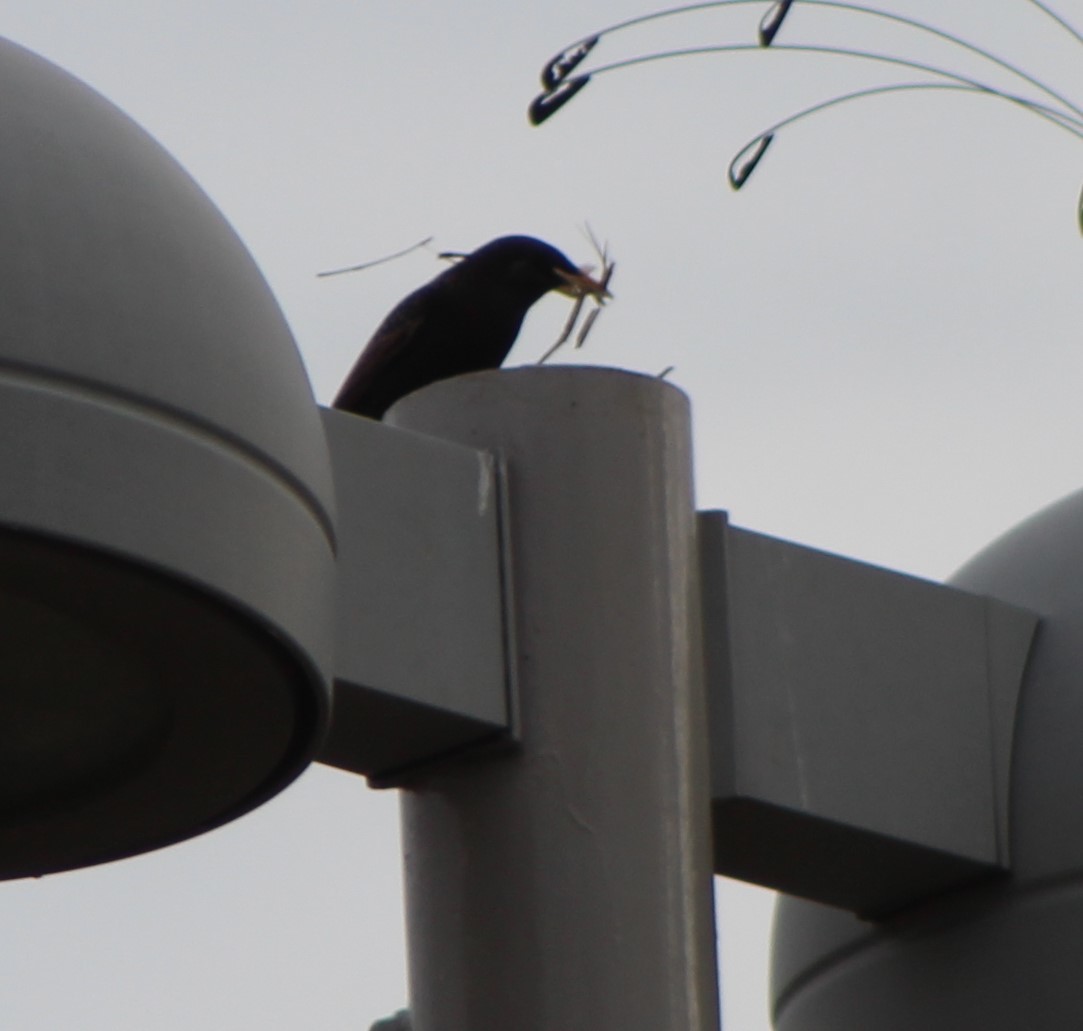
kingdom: Animalia
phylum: Chordata
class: Aves
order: Passeriformes
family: Sturnidae
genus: Sturnus
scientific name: Sturnus vulgaris
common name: Common starling
